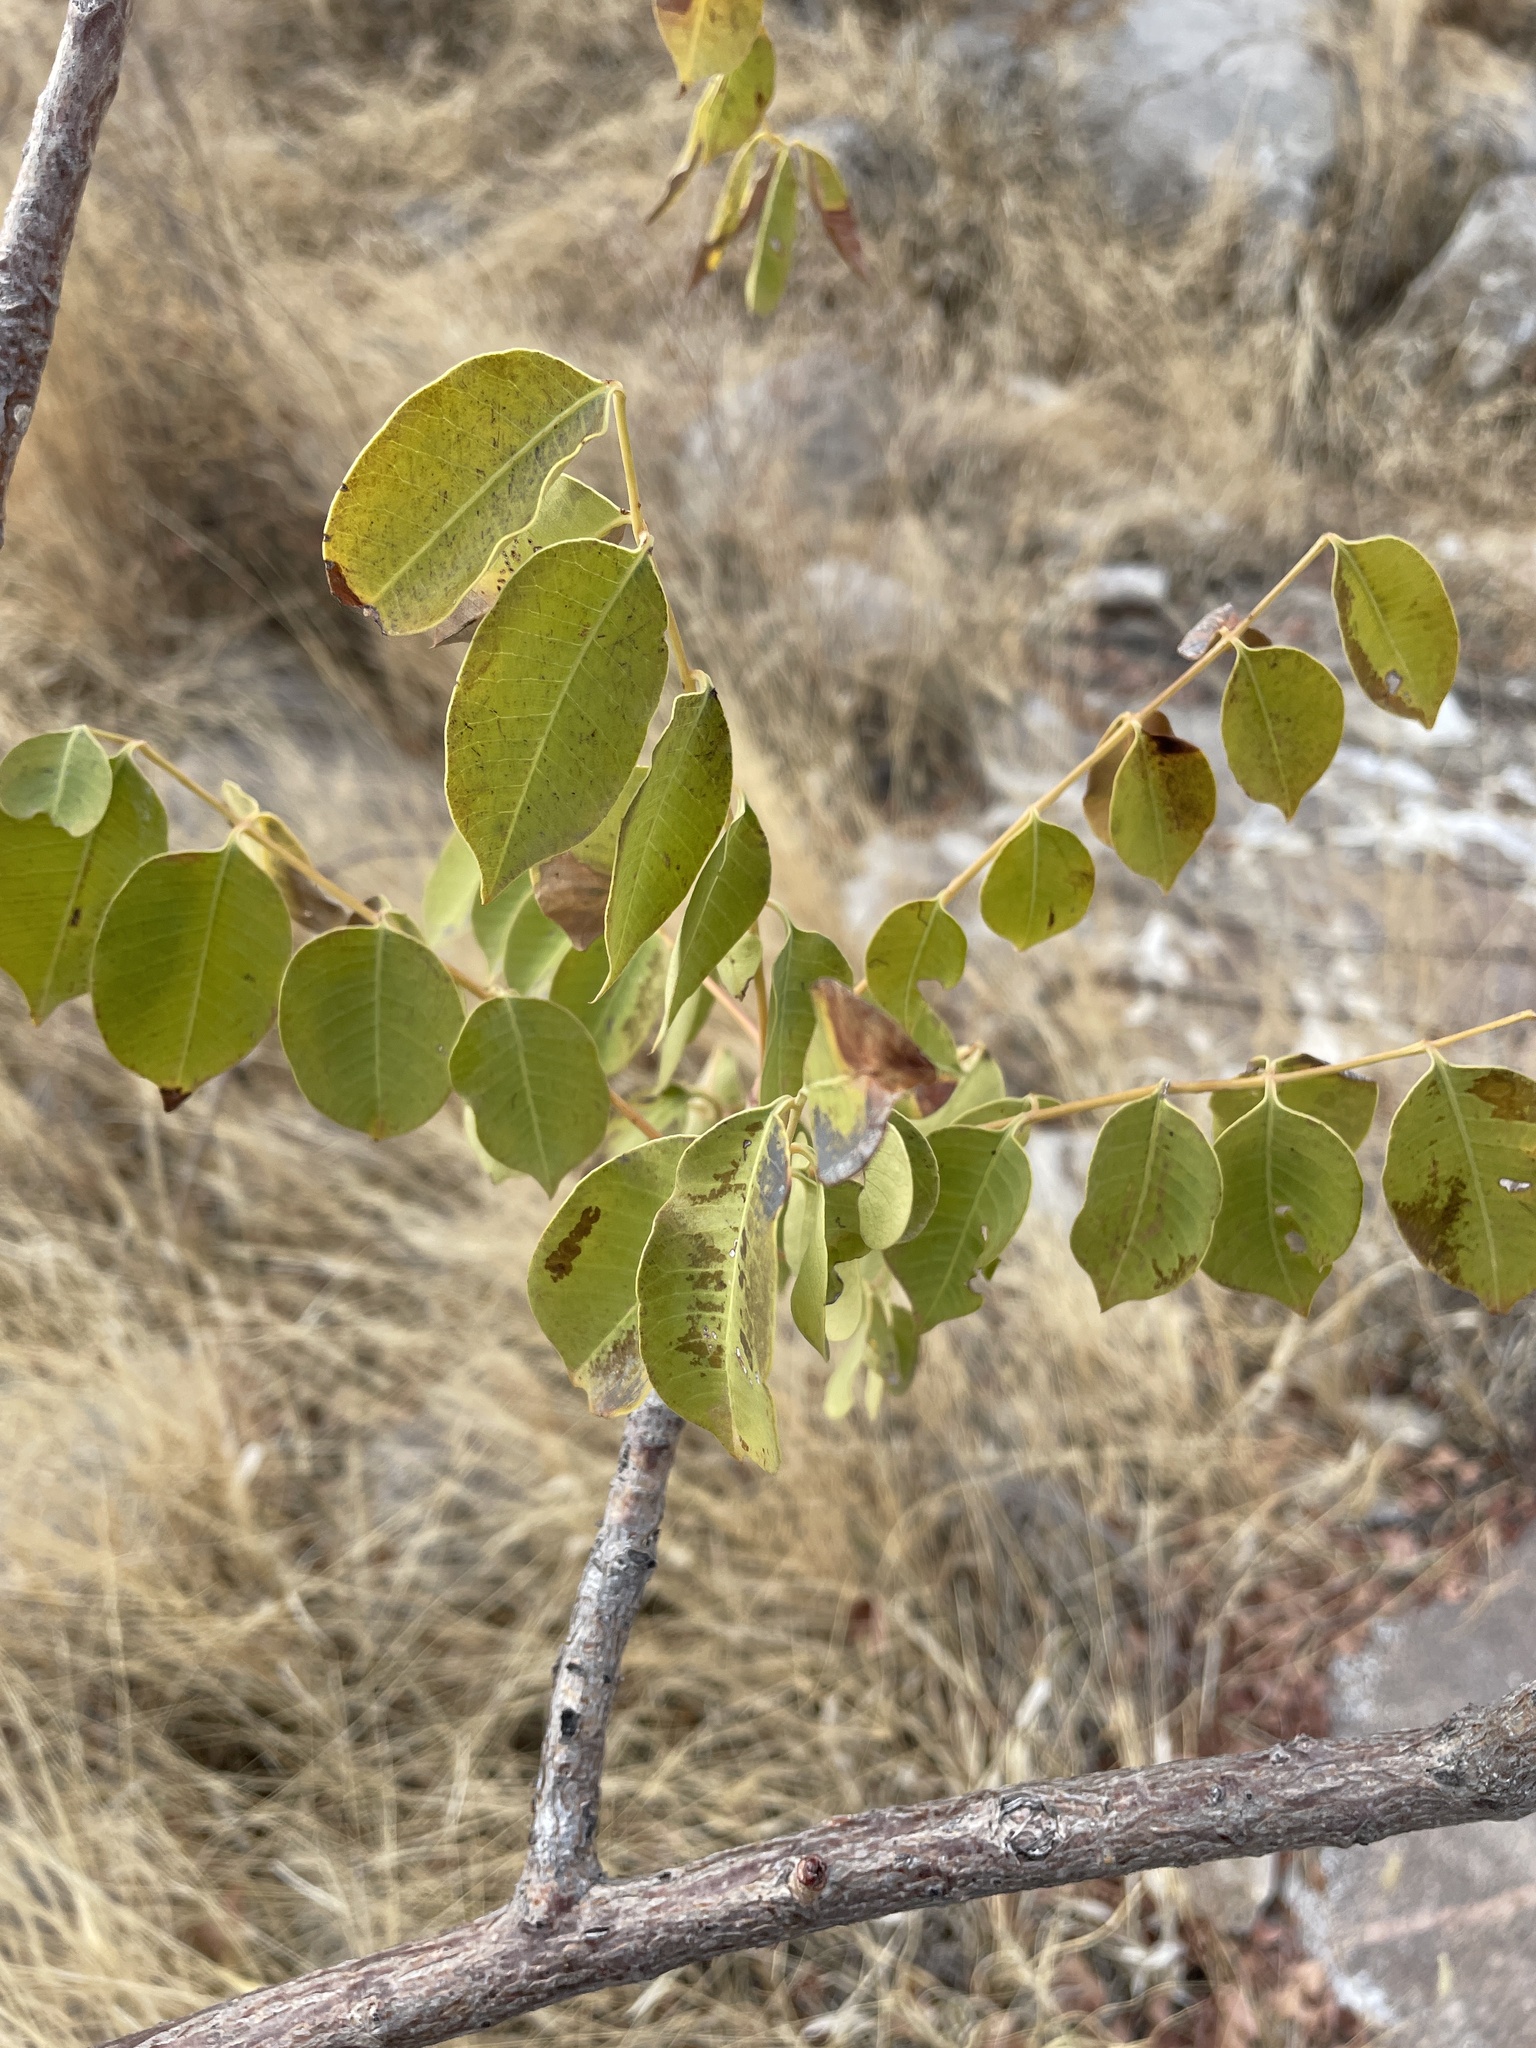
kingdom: Plantae
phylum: Tracheophyta
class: Magnoliopsida
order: Sapindales
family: Anacardiaceae
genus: Sclerocarya
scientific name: Sclerocarya birrea
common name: Marula
